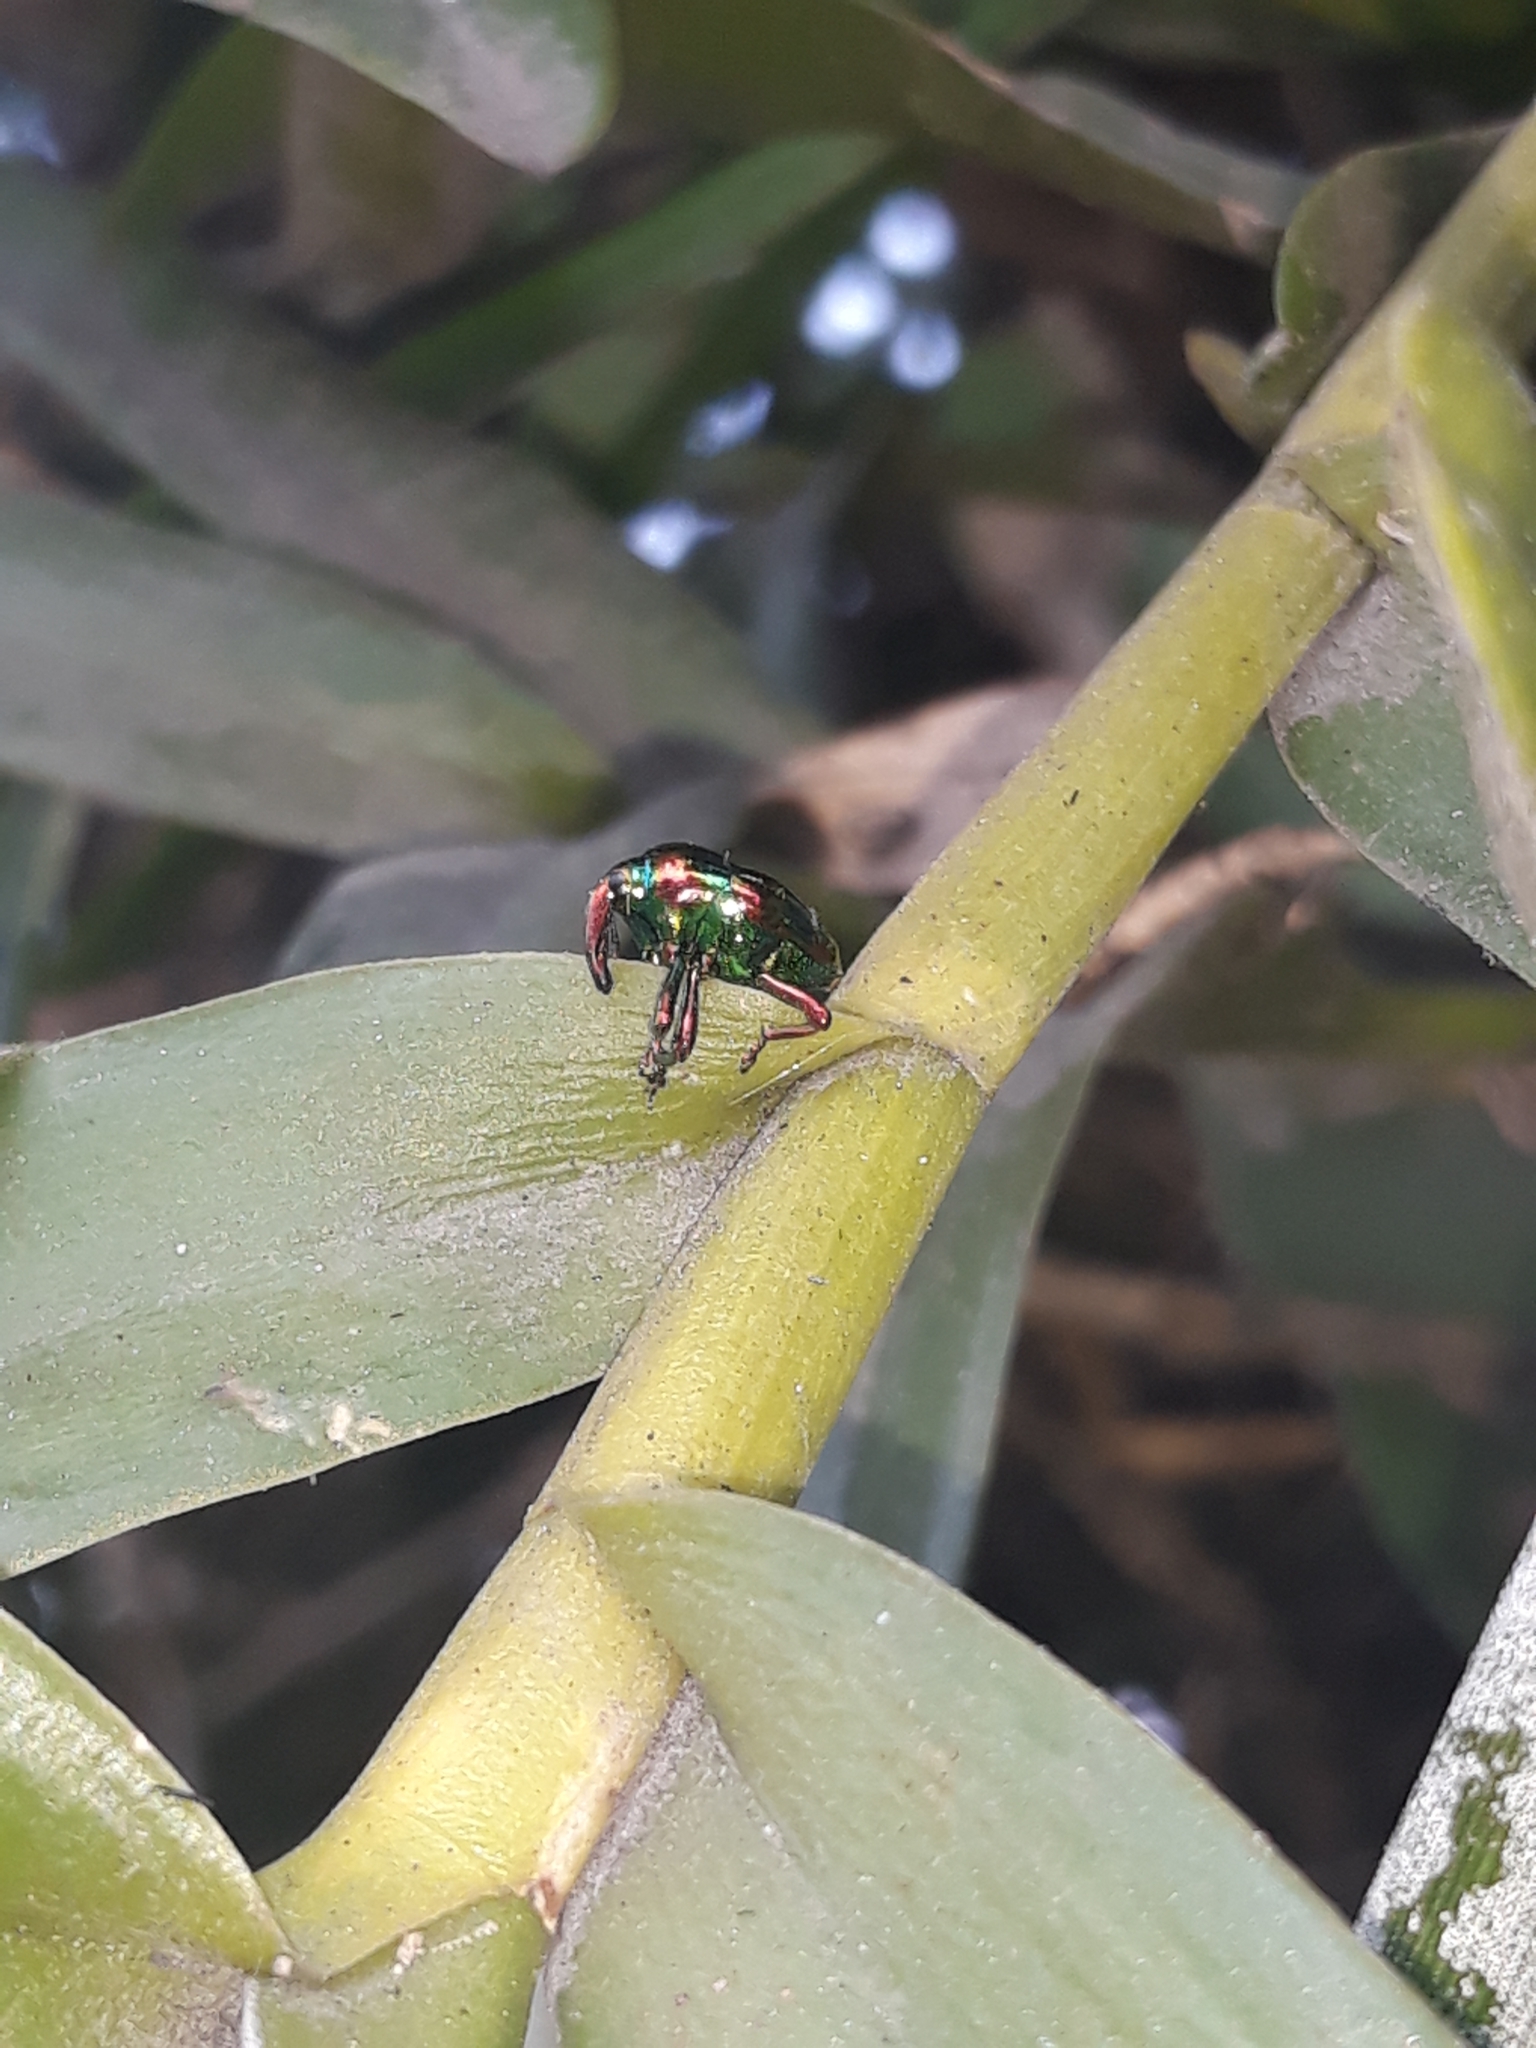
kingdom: Animalia
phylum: Arthropoda
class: Insecta
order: Coleoptera
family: Eurhynchidae
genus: Eurhinus
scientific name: Eurhinus magnificus
